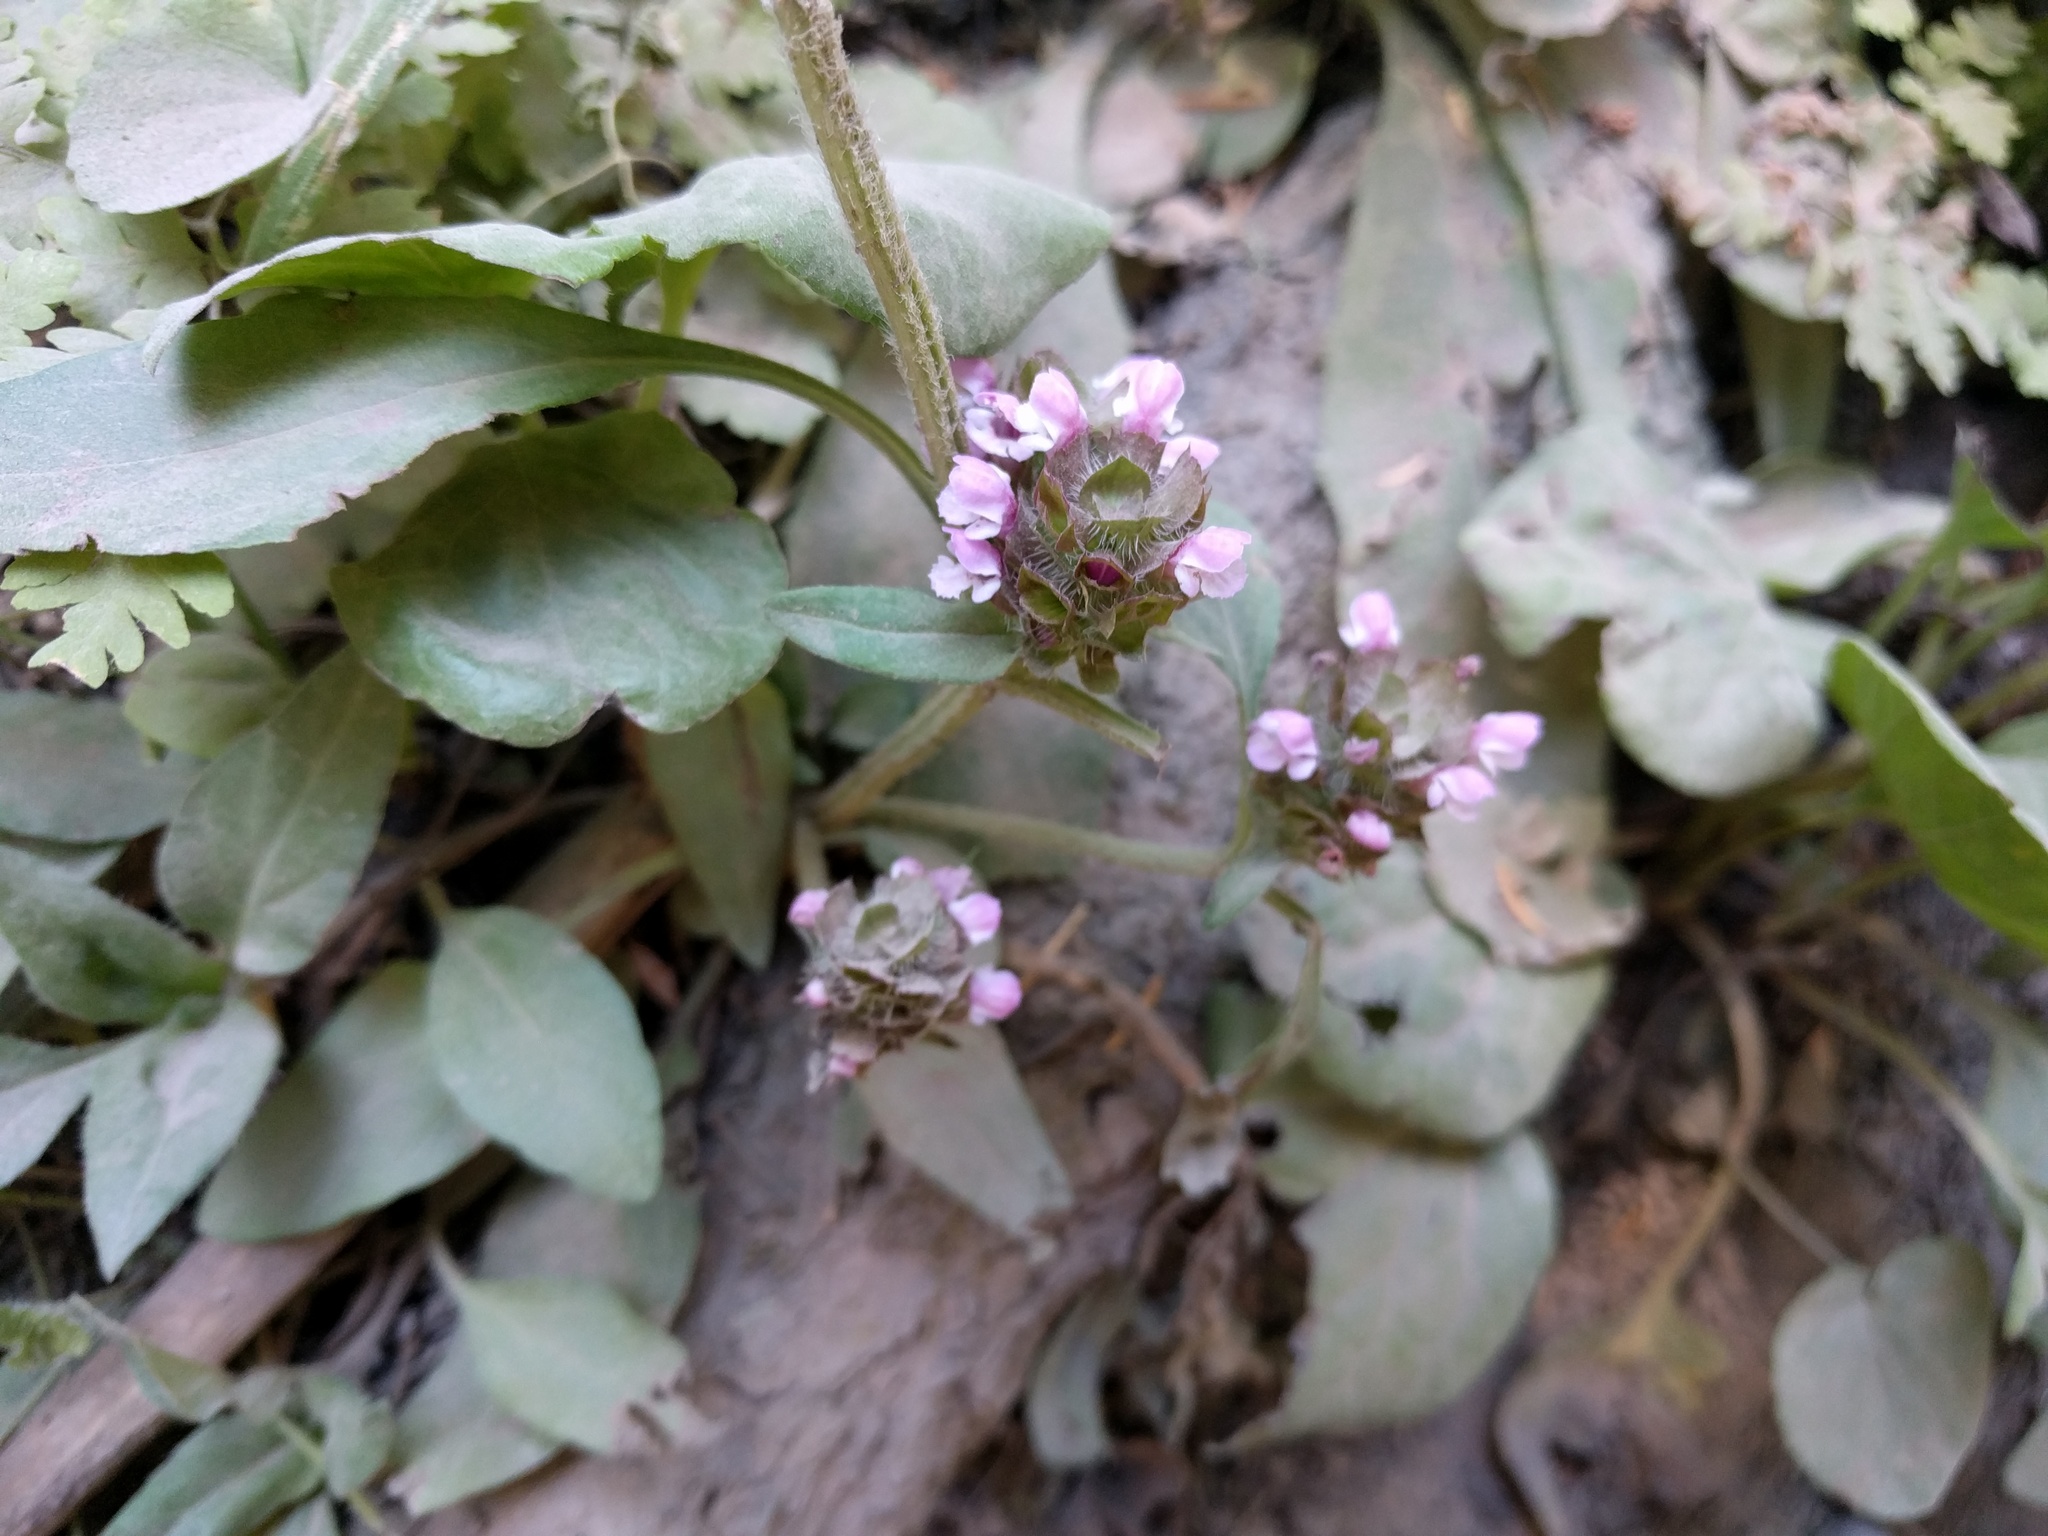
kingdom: Plantae
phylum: Tracheophyta
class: Magnoliopsida
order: Lamiales
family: Lamiaceae
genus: Prunella
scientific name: Prunella vulgaris
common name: Heal-all
